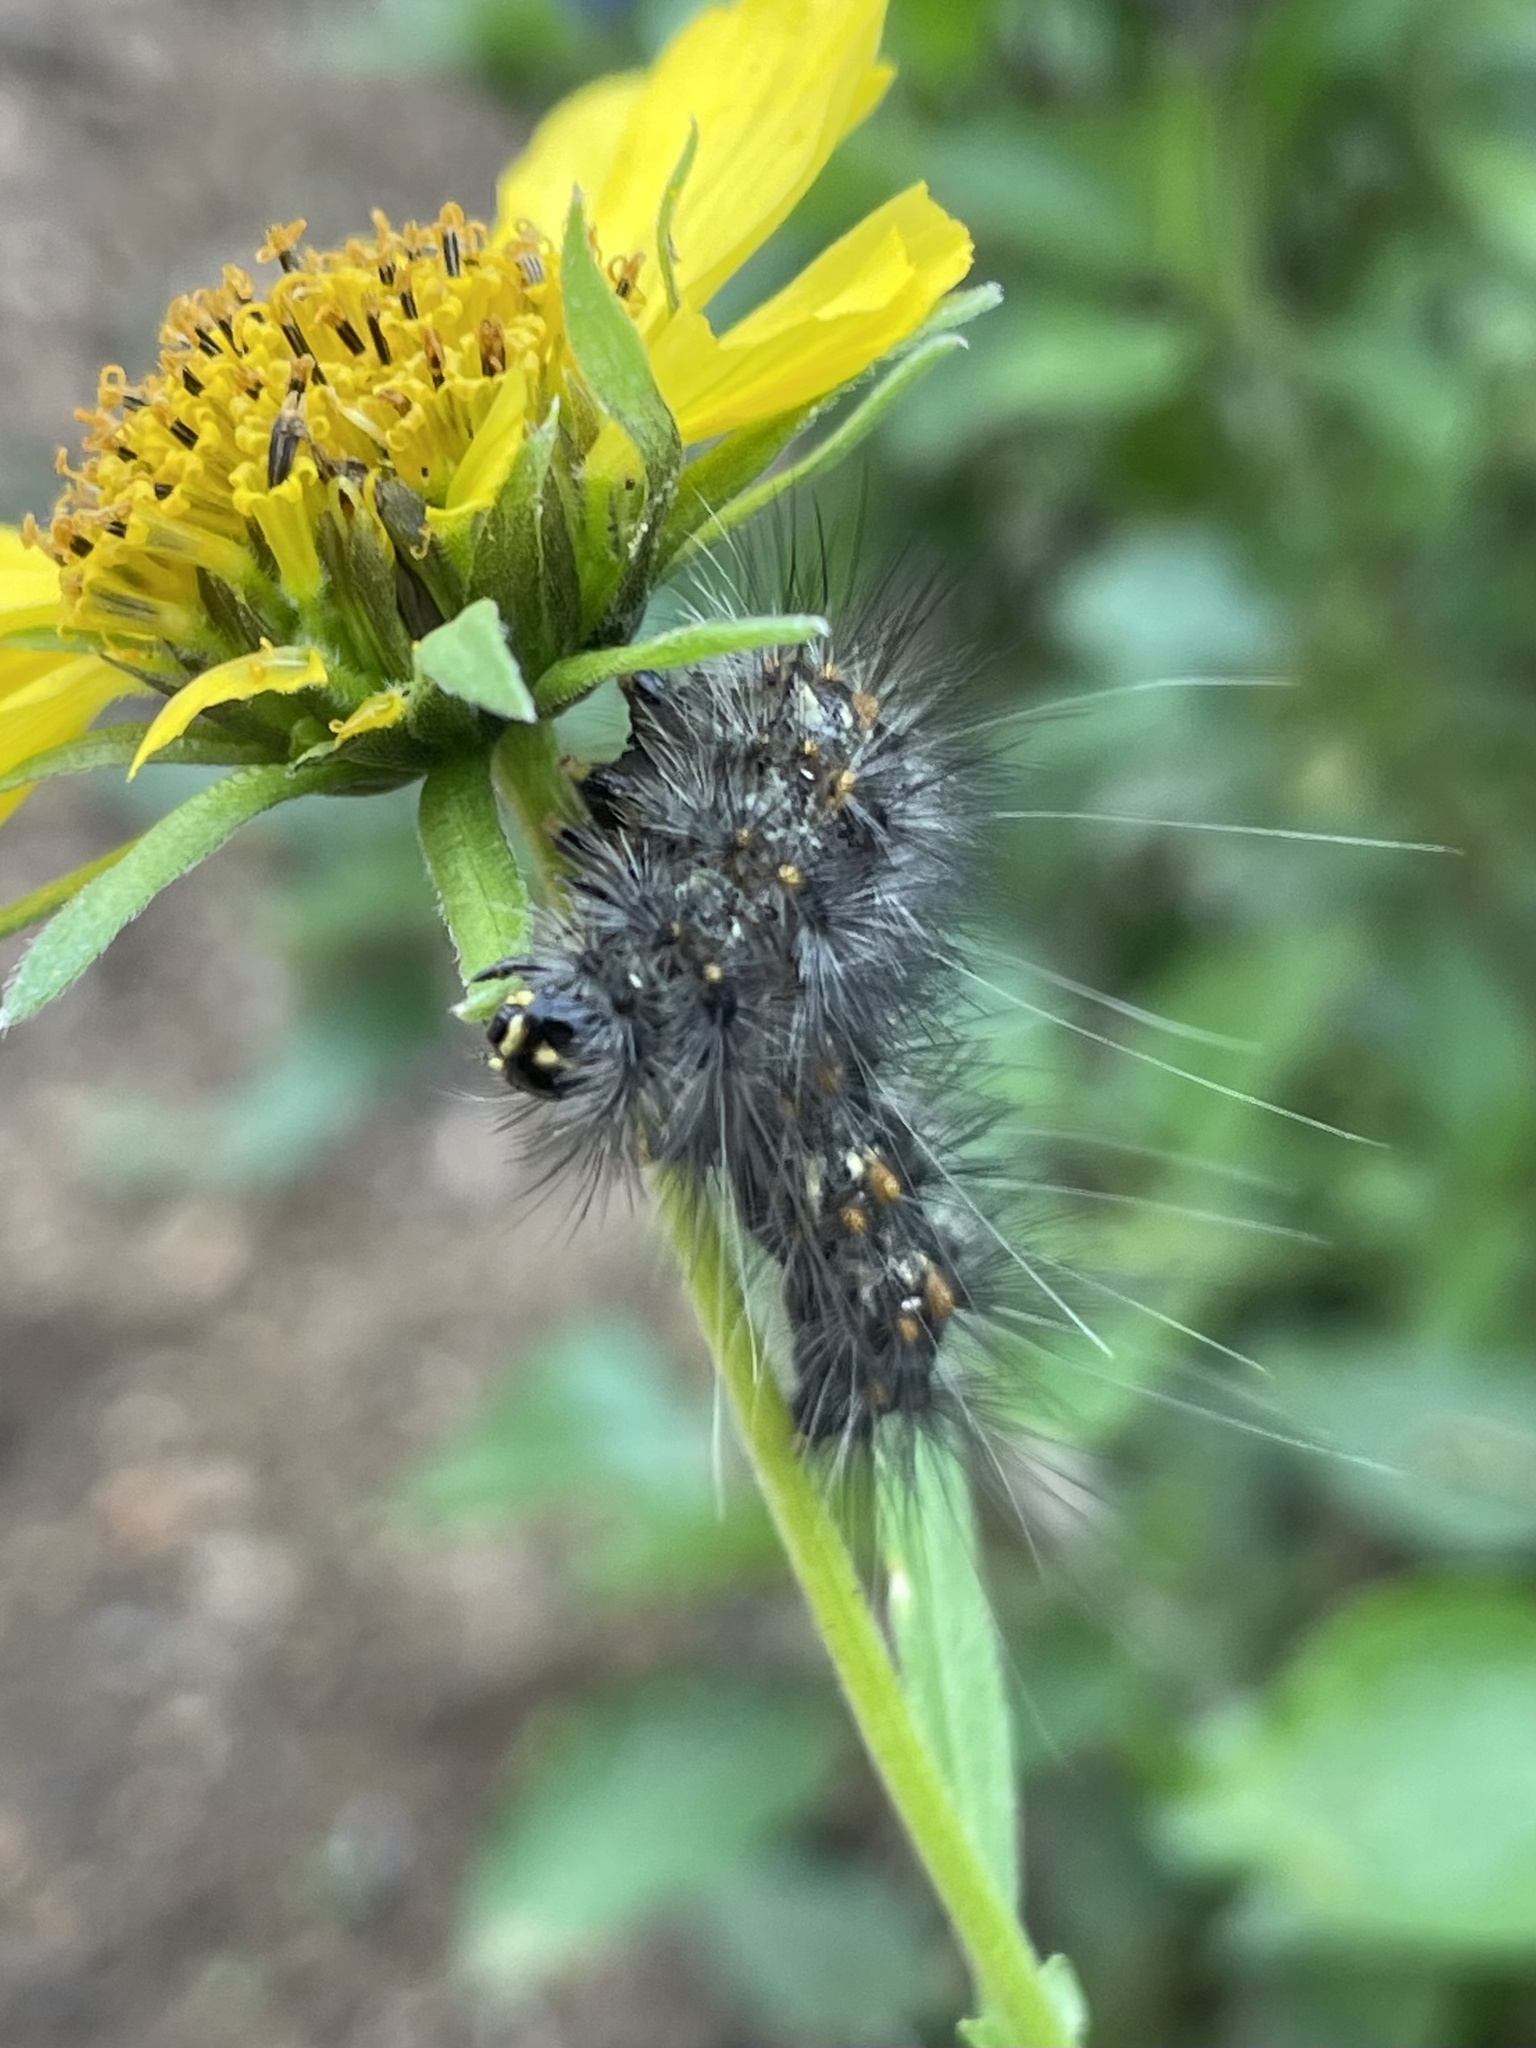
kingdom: Animalia
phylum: Arthropoda
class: Insecta
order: Lepidoptera
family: Erebidae
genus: Estigmene
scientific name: Estigmene acrea
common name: Salt marsh moth
